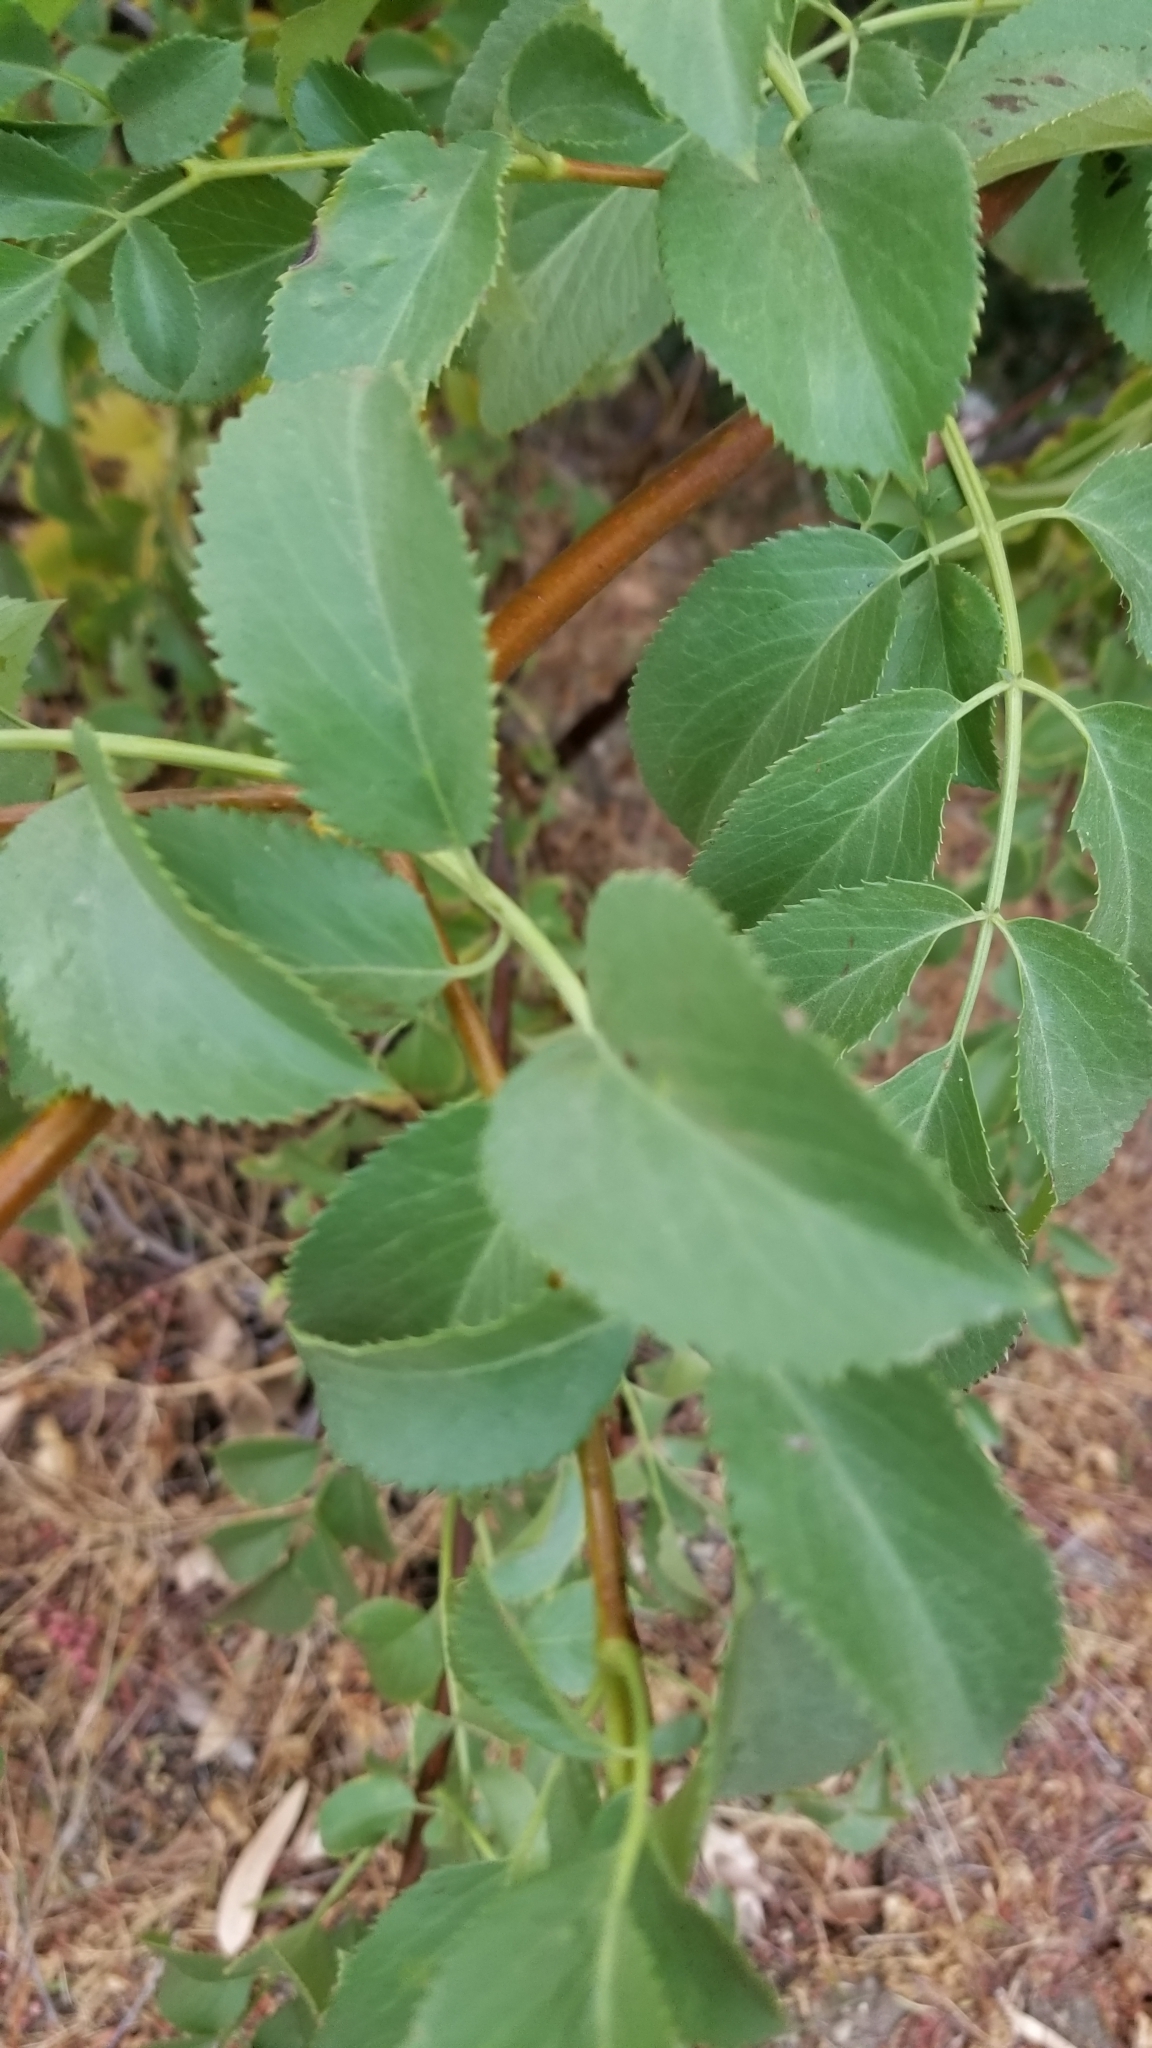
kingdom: Plantae
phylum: Tracheophyta
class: Magnoliopsida
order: Dipsacales
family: Viburnaceae
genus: Sambucus
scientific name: Sambucus cerulea
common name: Blue elder
